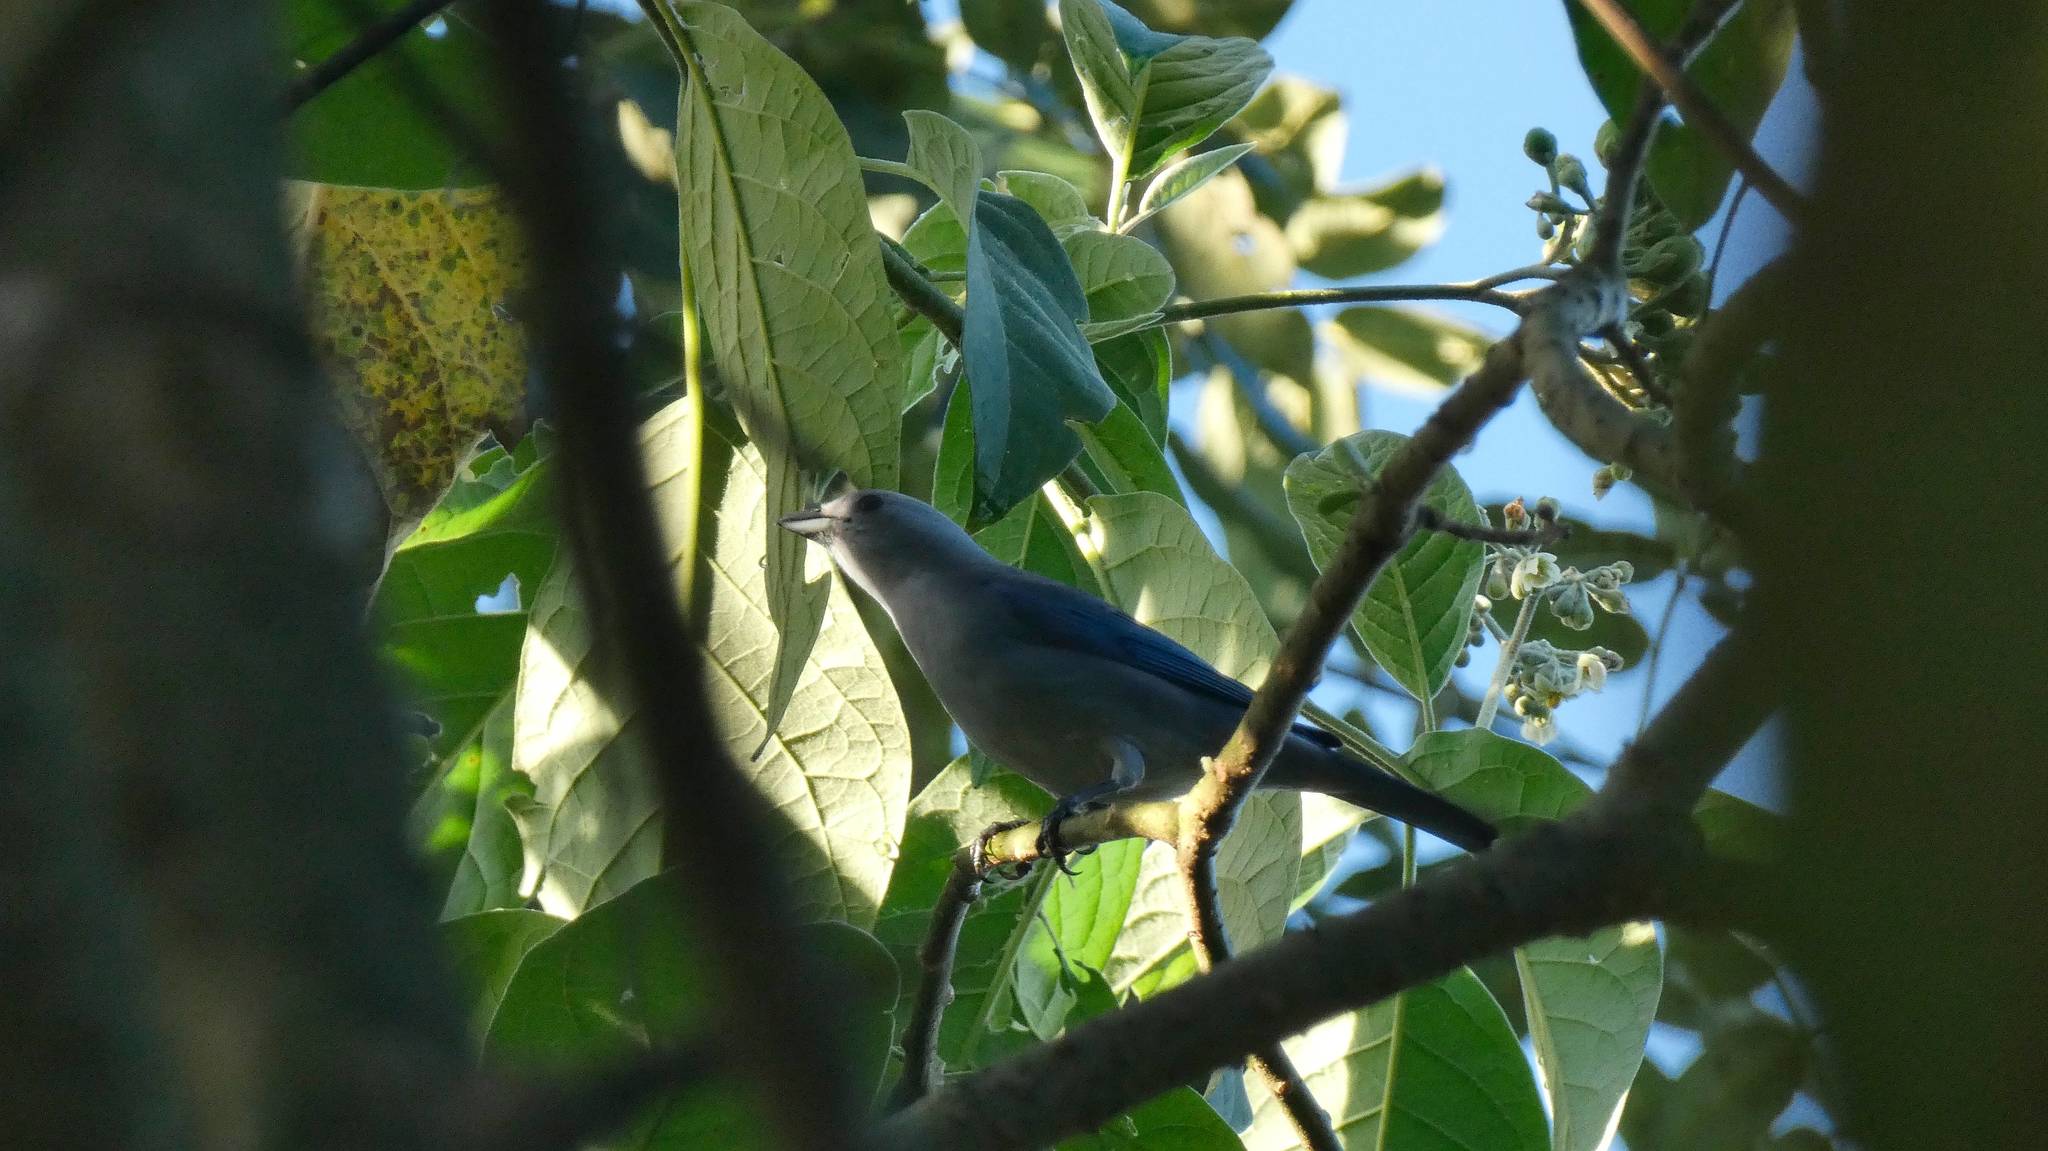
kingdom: Animalia
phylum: Chordata
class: Aves
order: Passeriformes
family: Thraupidae
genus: Thraupis
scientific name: Thraupis episcopus
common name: Blue-grey tanager
